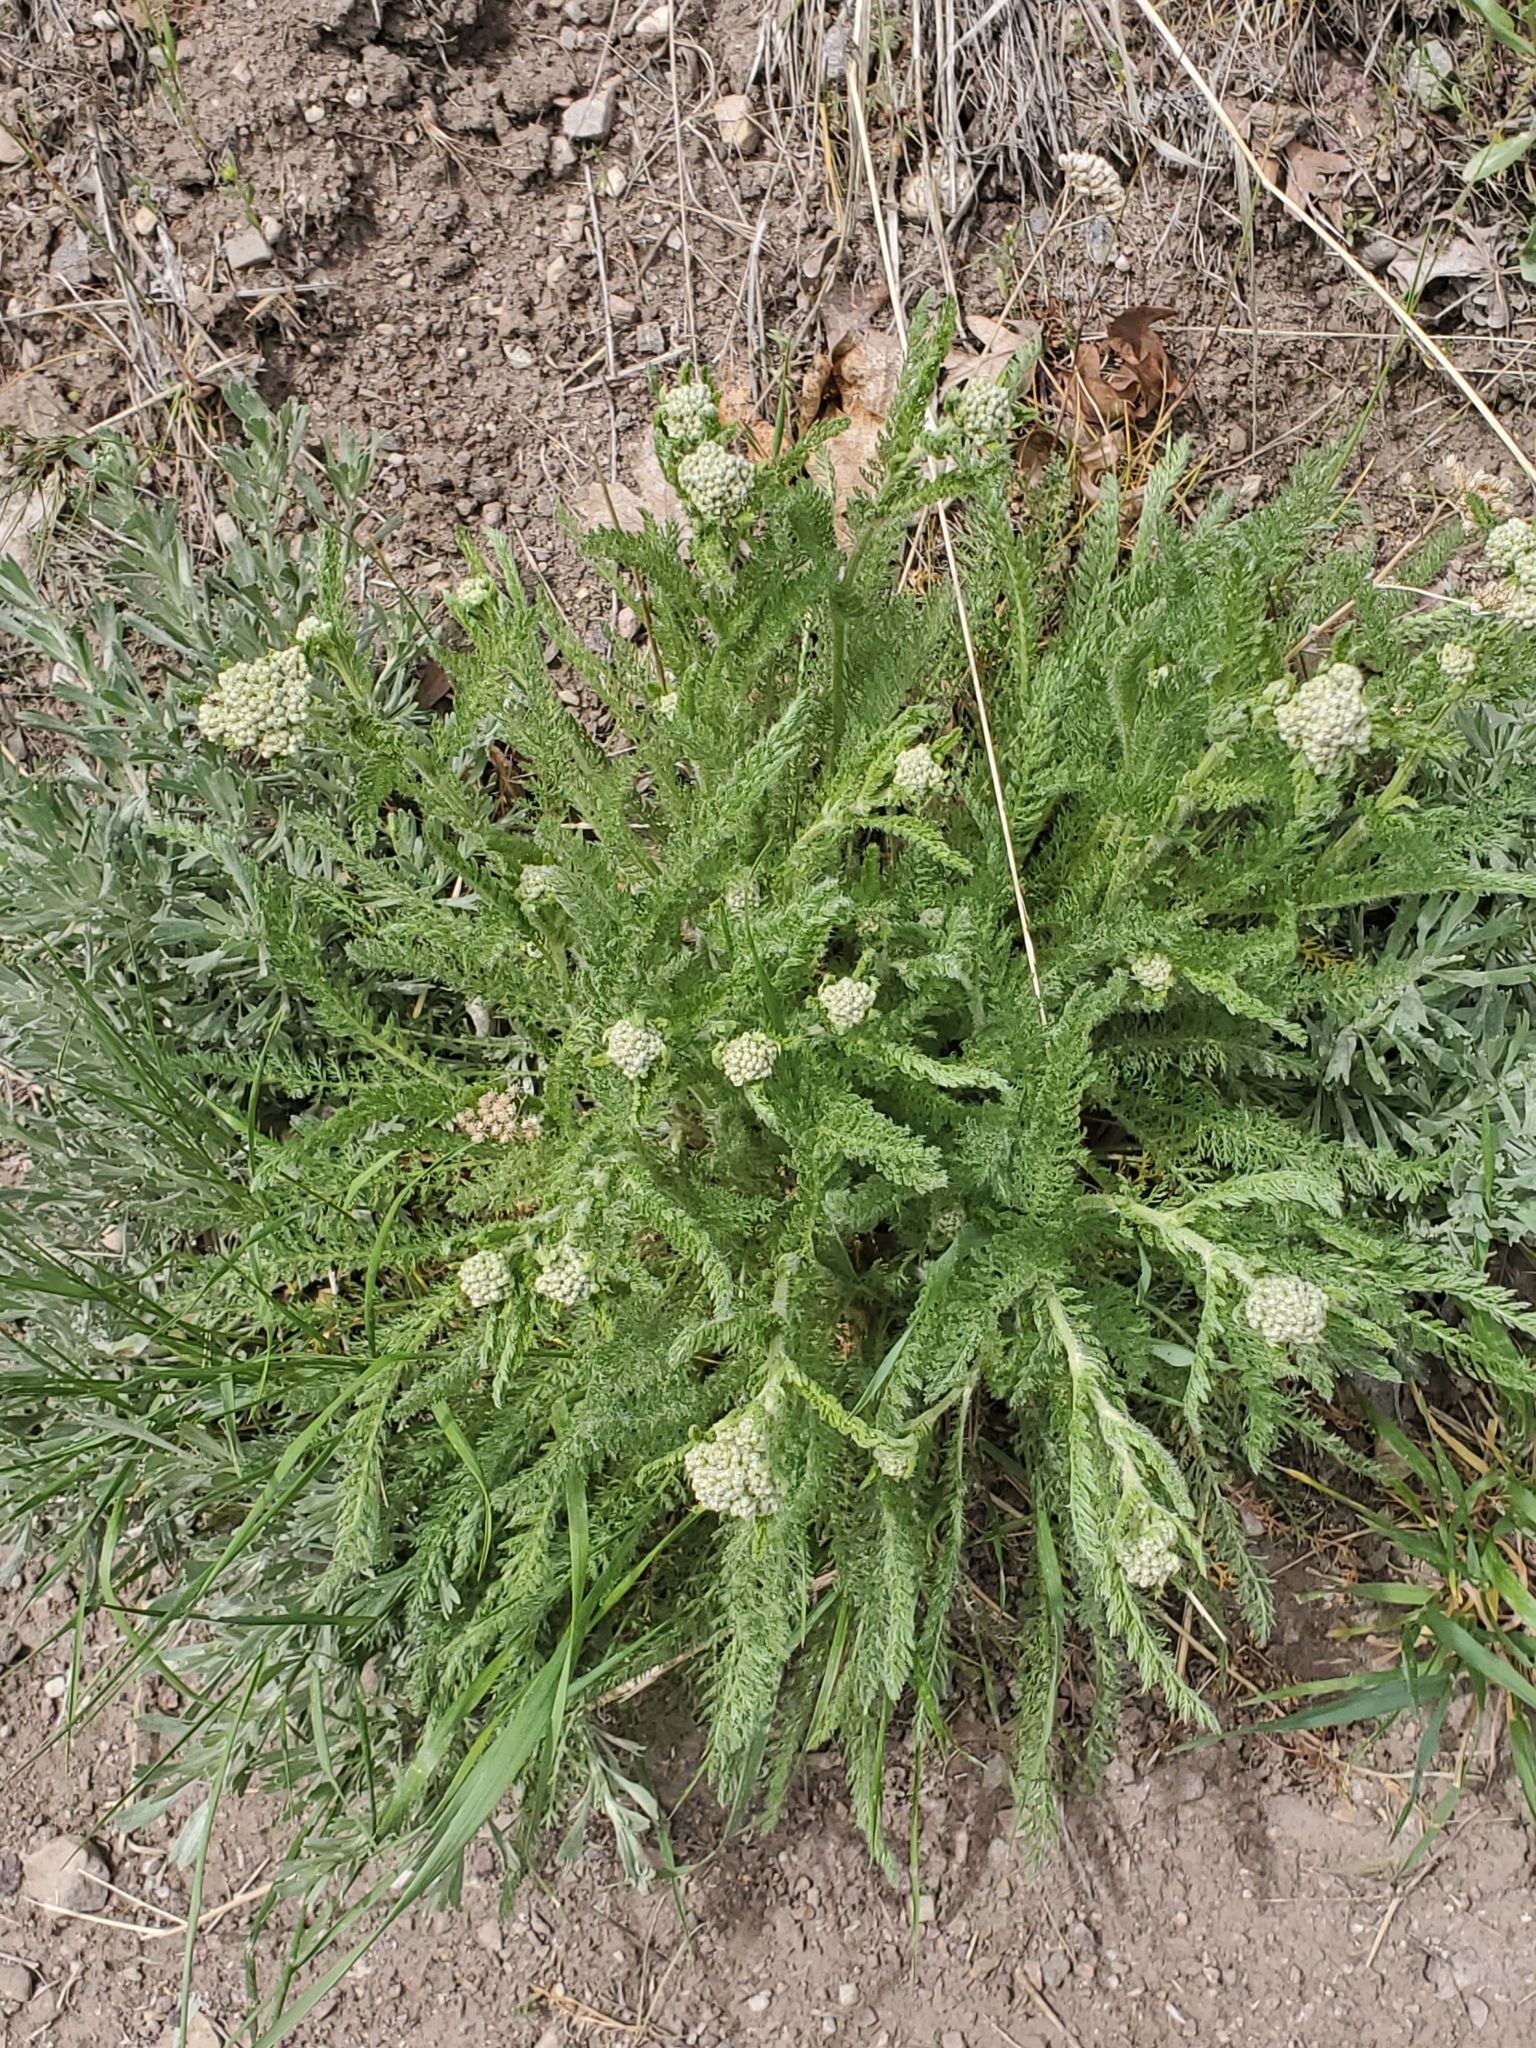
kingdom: Plantae
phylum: Tracheophyta
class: Magnoliopsida
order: Asterales
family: Asteraceae
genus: Achillea
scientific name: Achillea millefolium
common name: Yarrow
